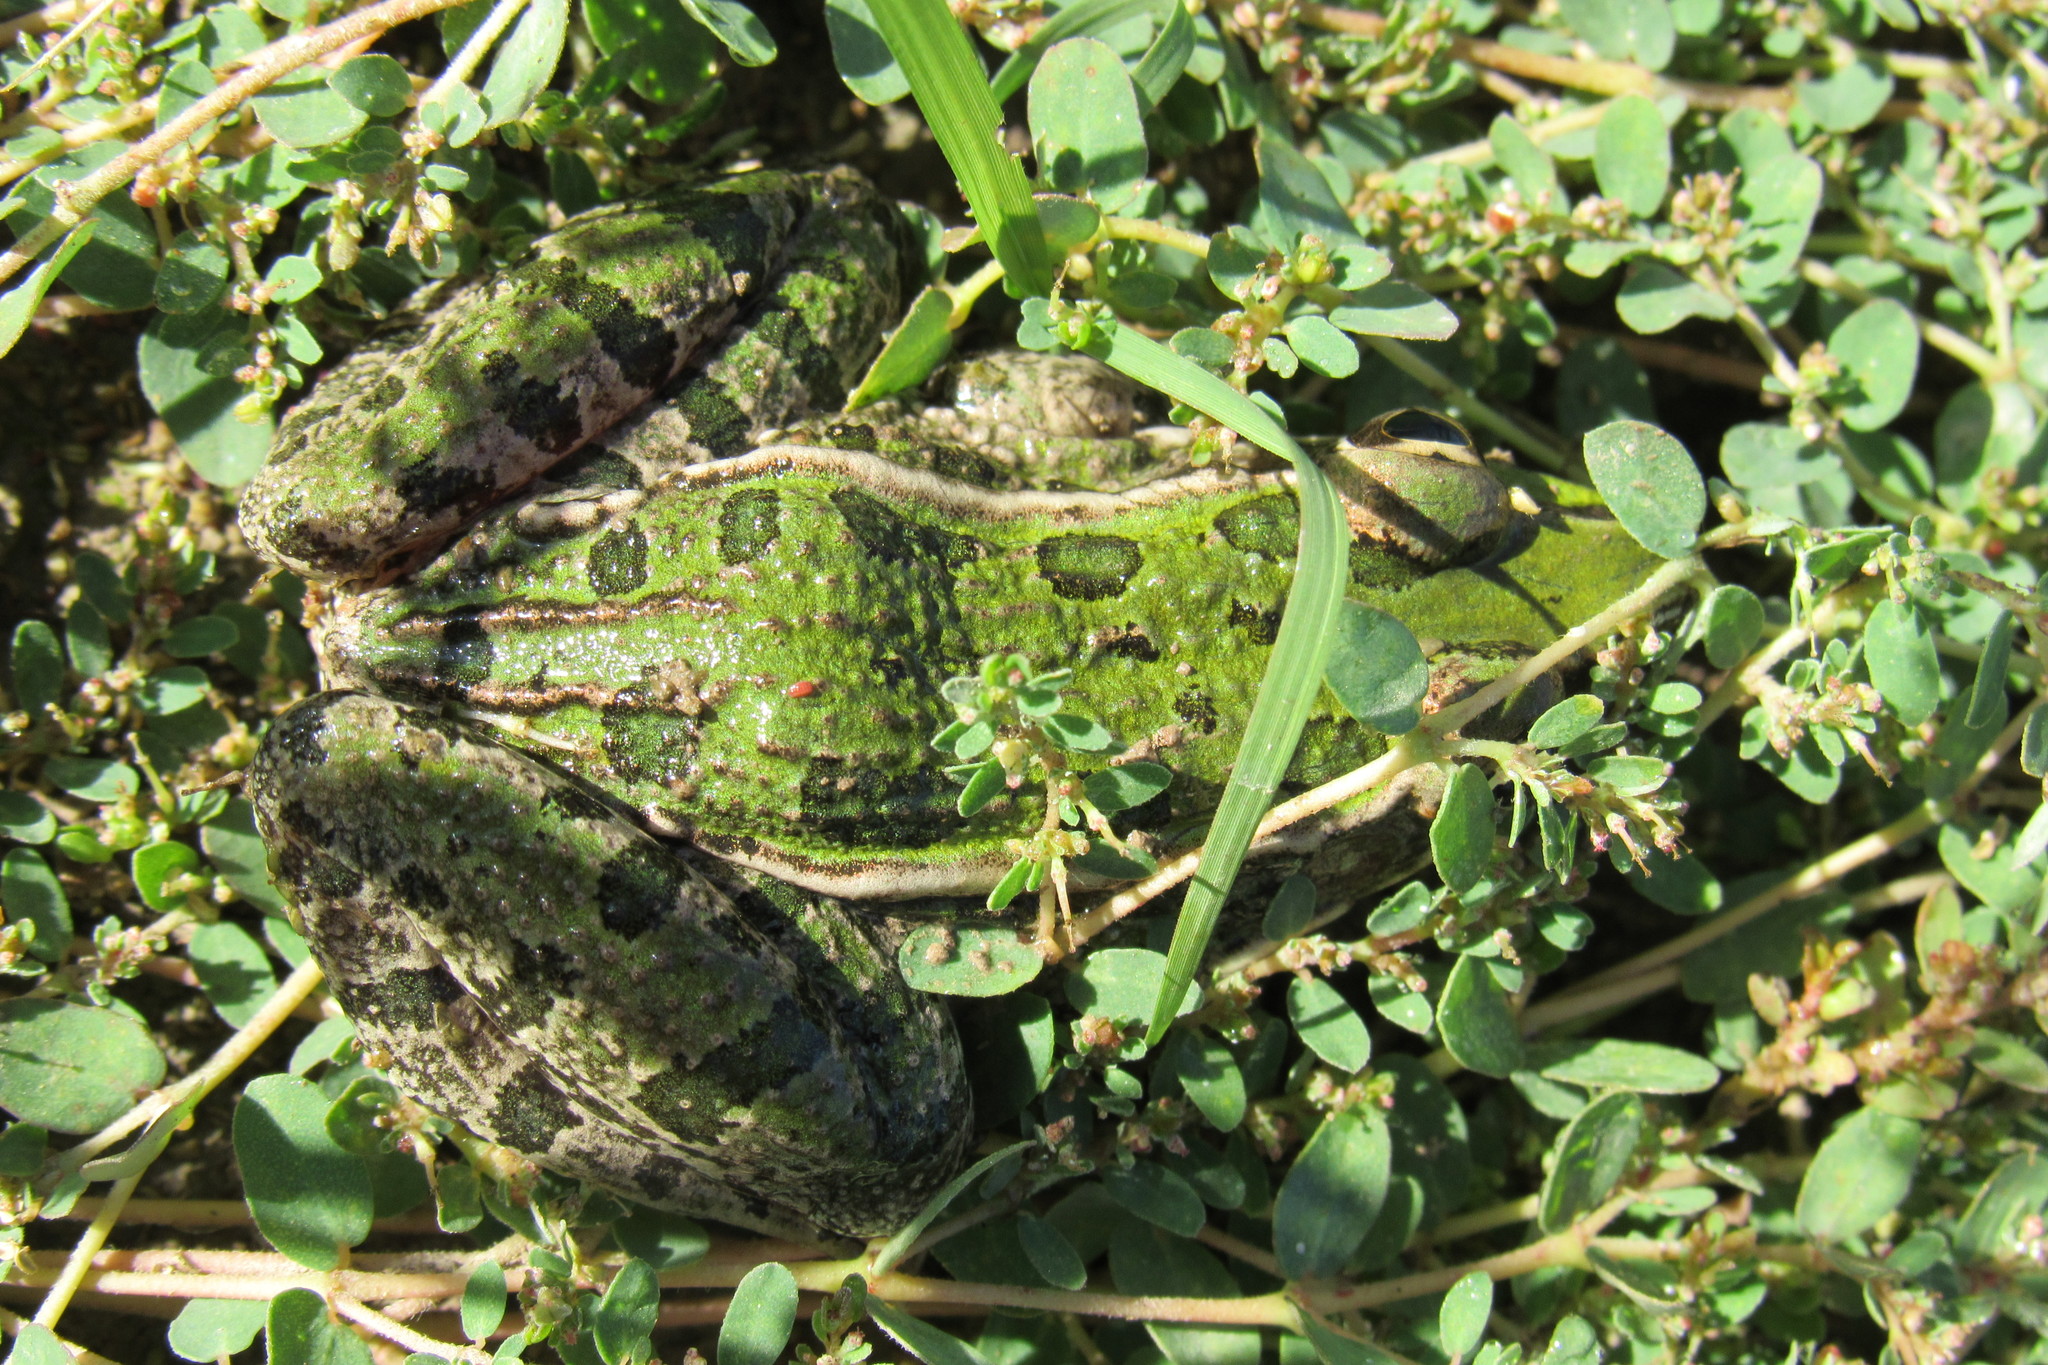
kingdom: Animalia
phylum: Chordata
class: Amphibia
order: Anura
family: Ranidae
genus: Lithobates
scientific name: Lithobates berlandieri
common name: Rio grande leopard frog
